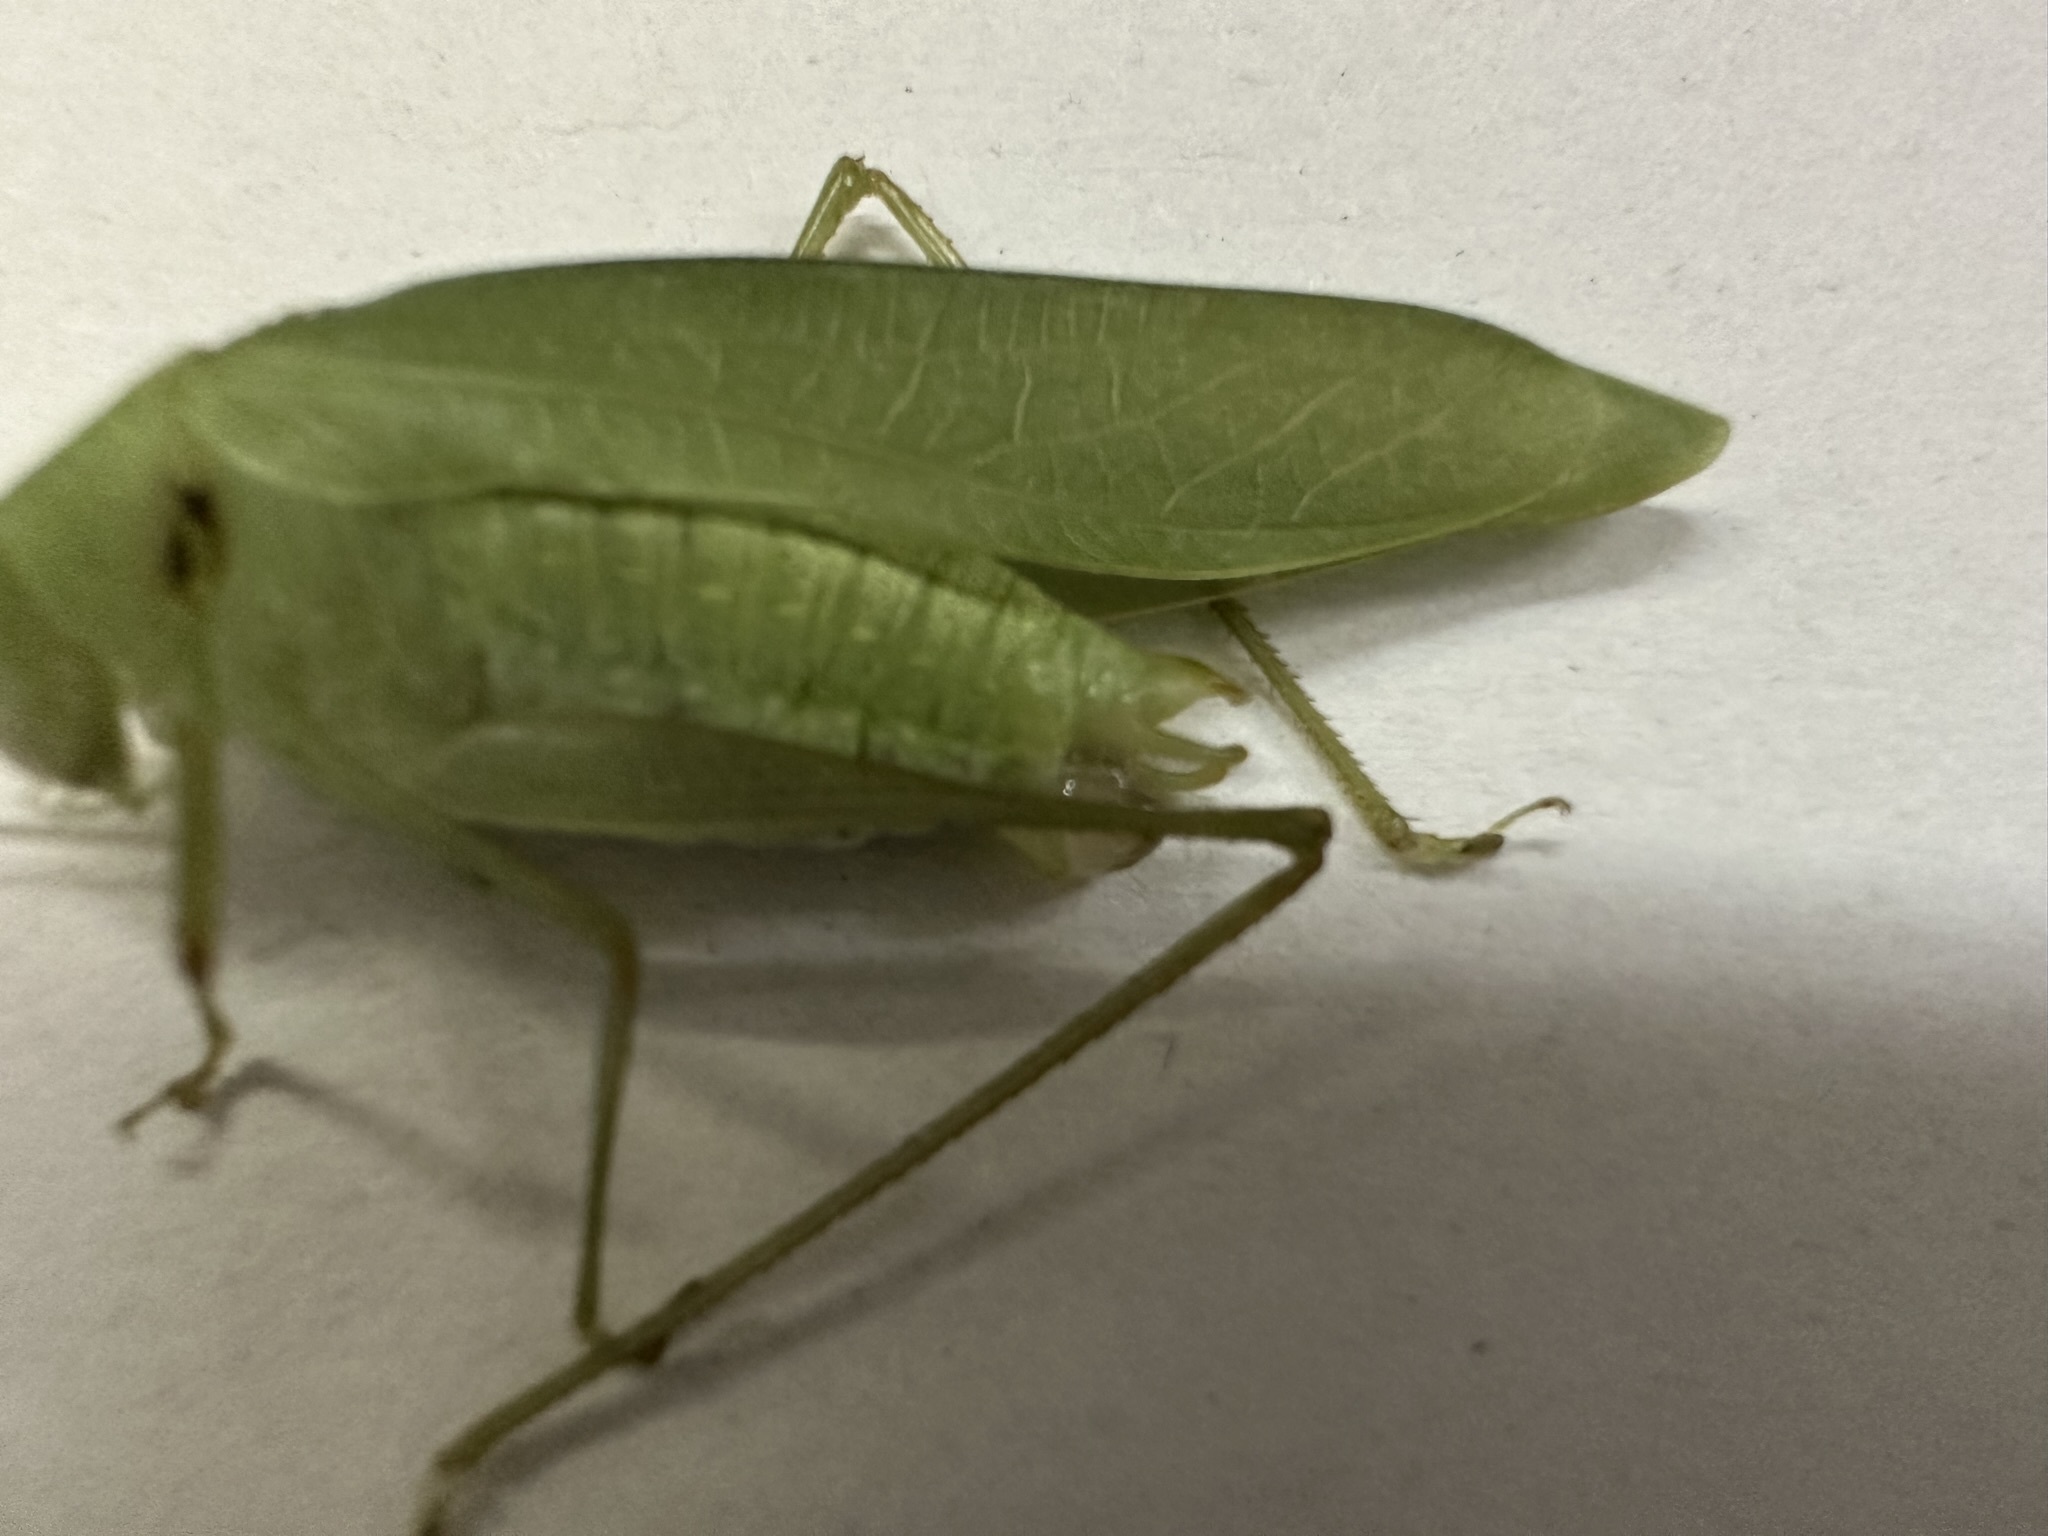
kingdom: Animalia
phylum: Arthropoda
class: Insecta
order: Orthoptera
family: Tettigoniidae
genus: Phaulula
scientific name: Phaulula macilenta
